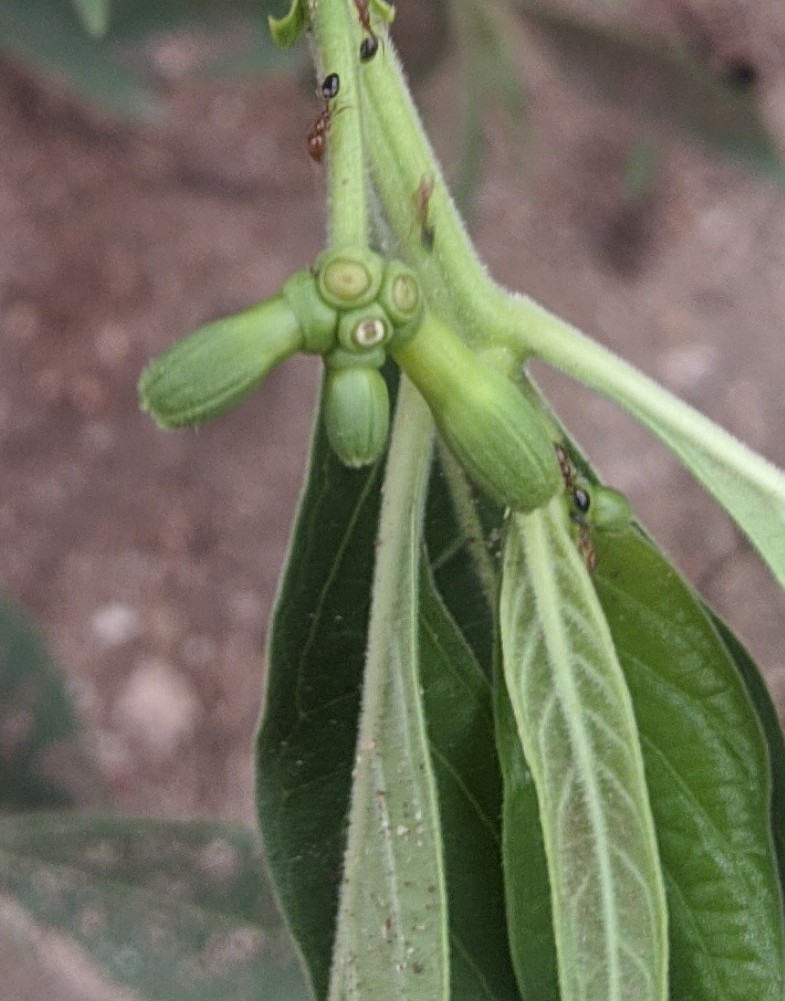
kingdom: Plantae
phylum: Tracheophyta
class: Magnoliopsida
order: Gentianales
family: Rubiaceae
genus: Morinda
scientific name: Morinda coreia
